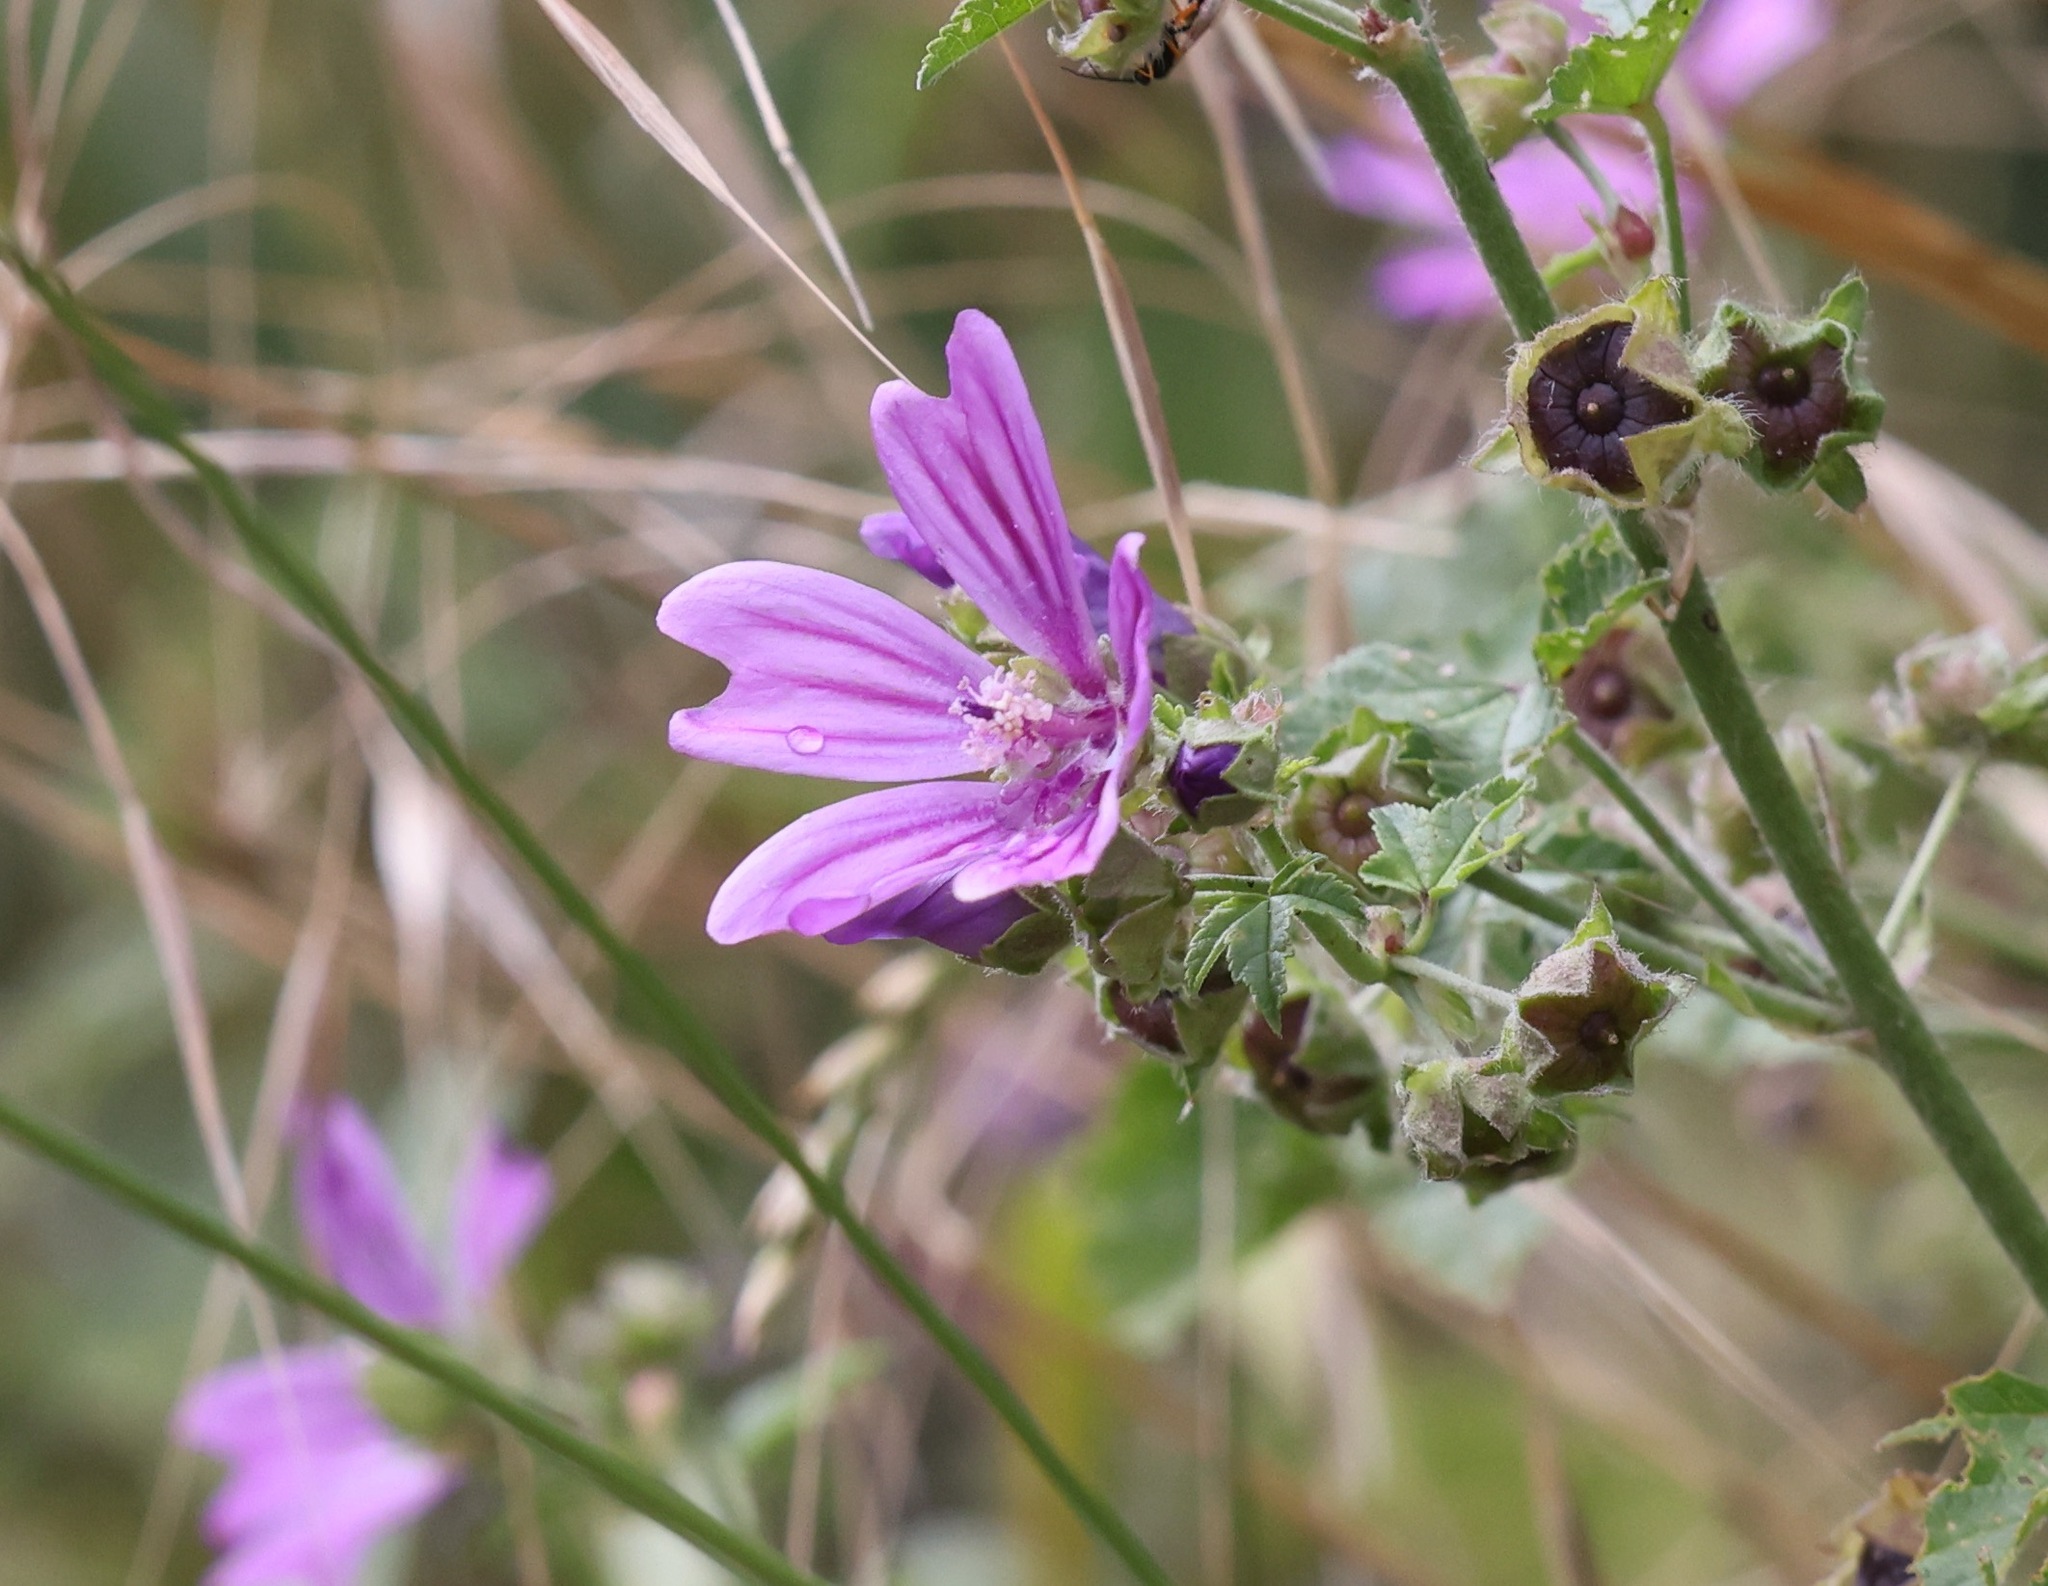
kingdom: Plantae
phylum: Tracheophyta
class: Magnoliopsida
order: Malvales
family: Malvaceae
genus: Malva
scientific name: Malva sylvestris
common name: Common mallow
